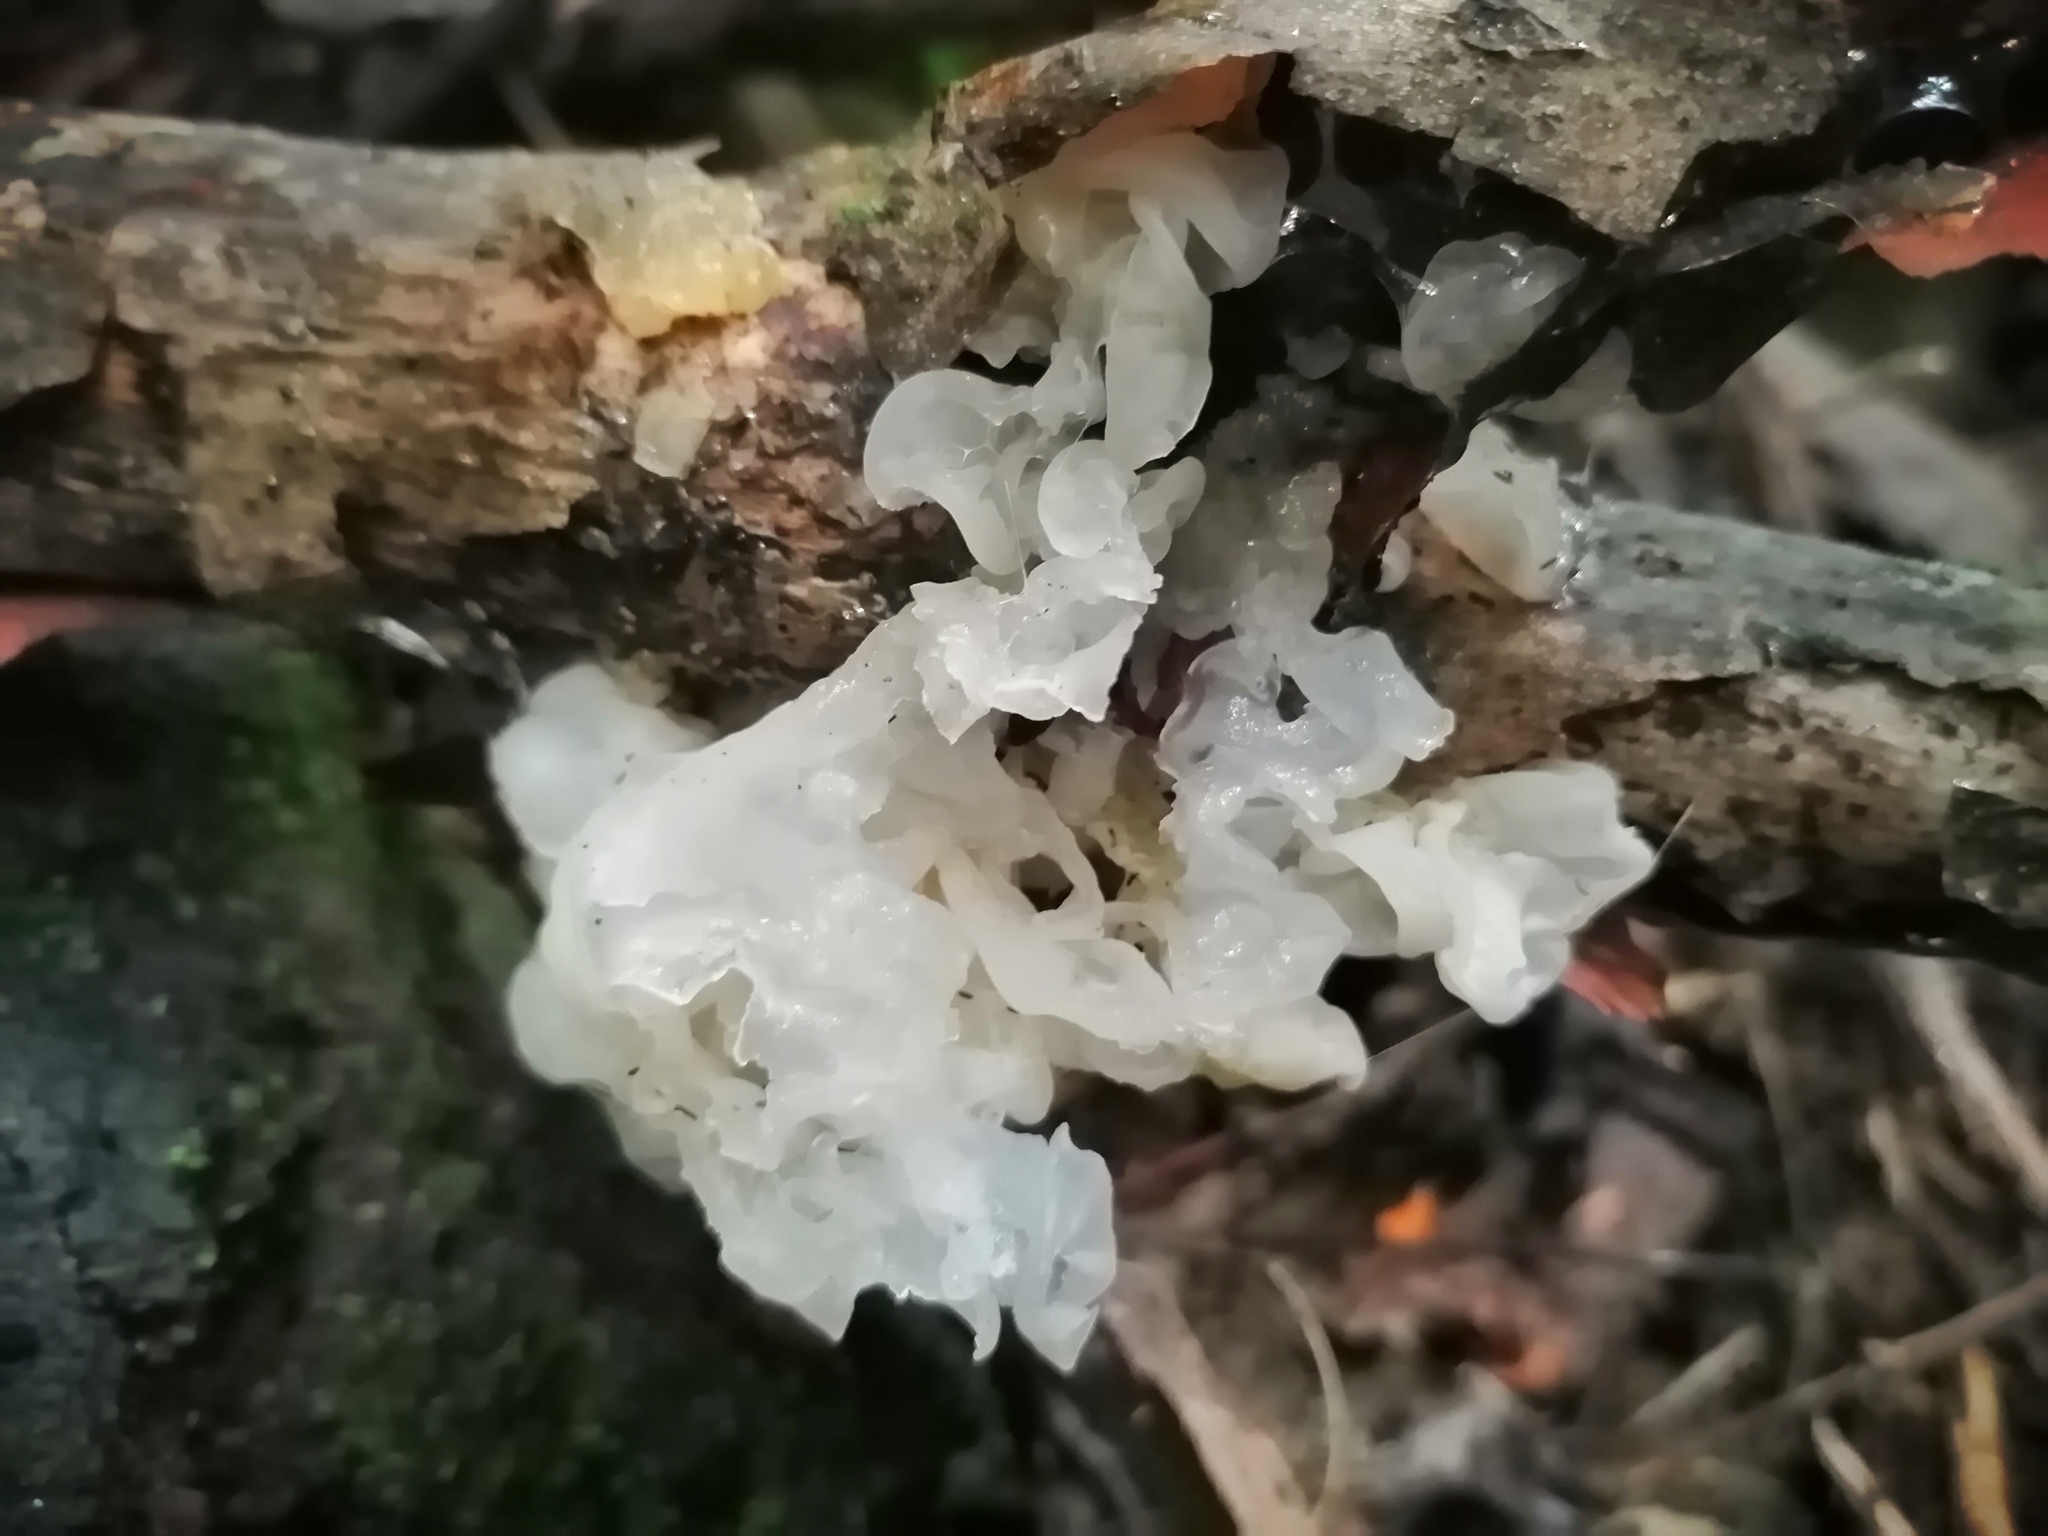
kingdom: Fungi
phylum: Basidiomycota
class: Tremellomycetes
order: Tremellales
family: Tremellaceae
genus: Tremella
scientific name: Tremella fuciformis
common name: Snow fungus
